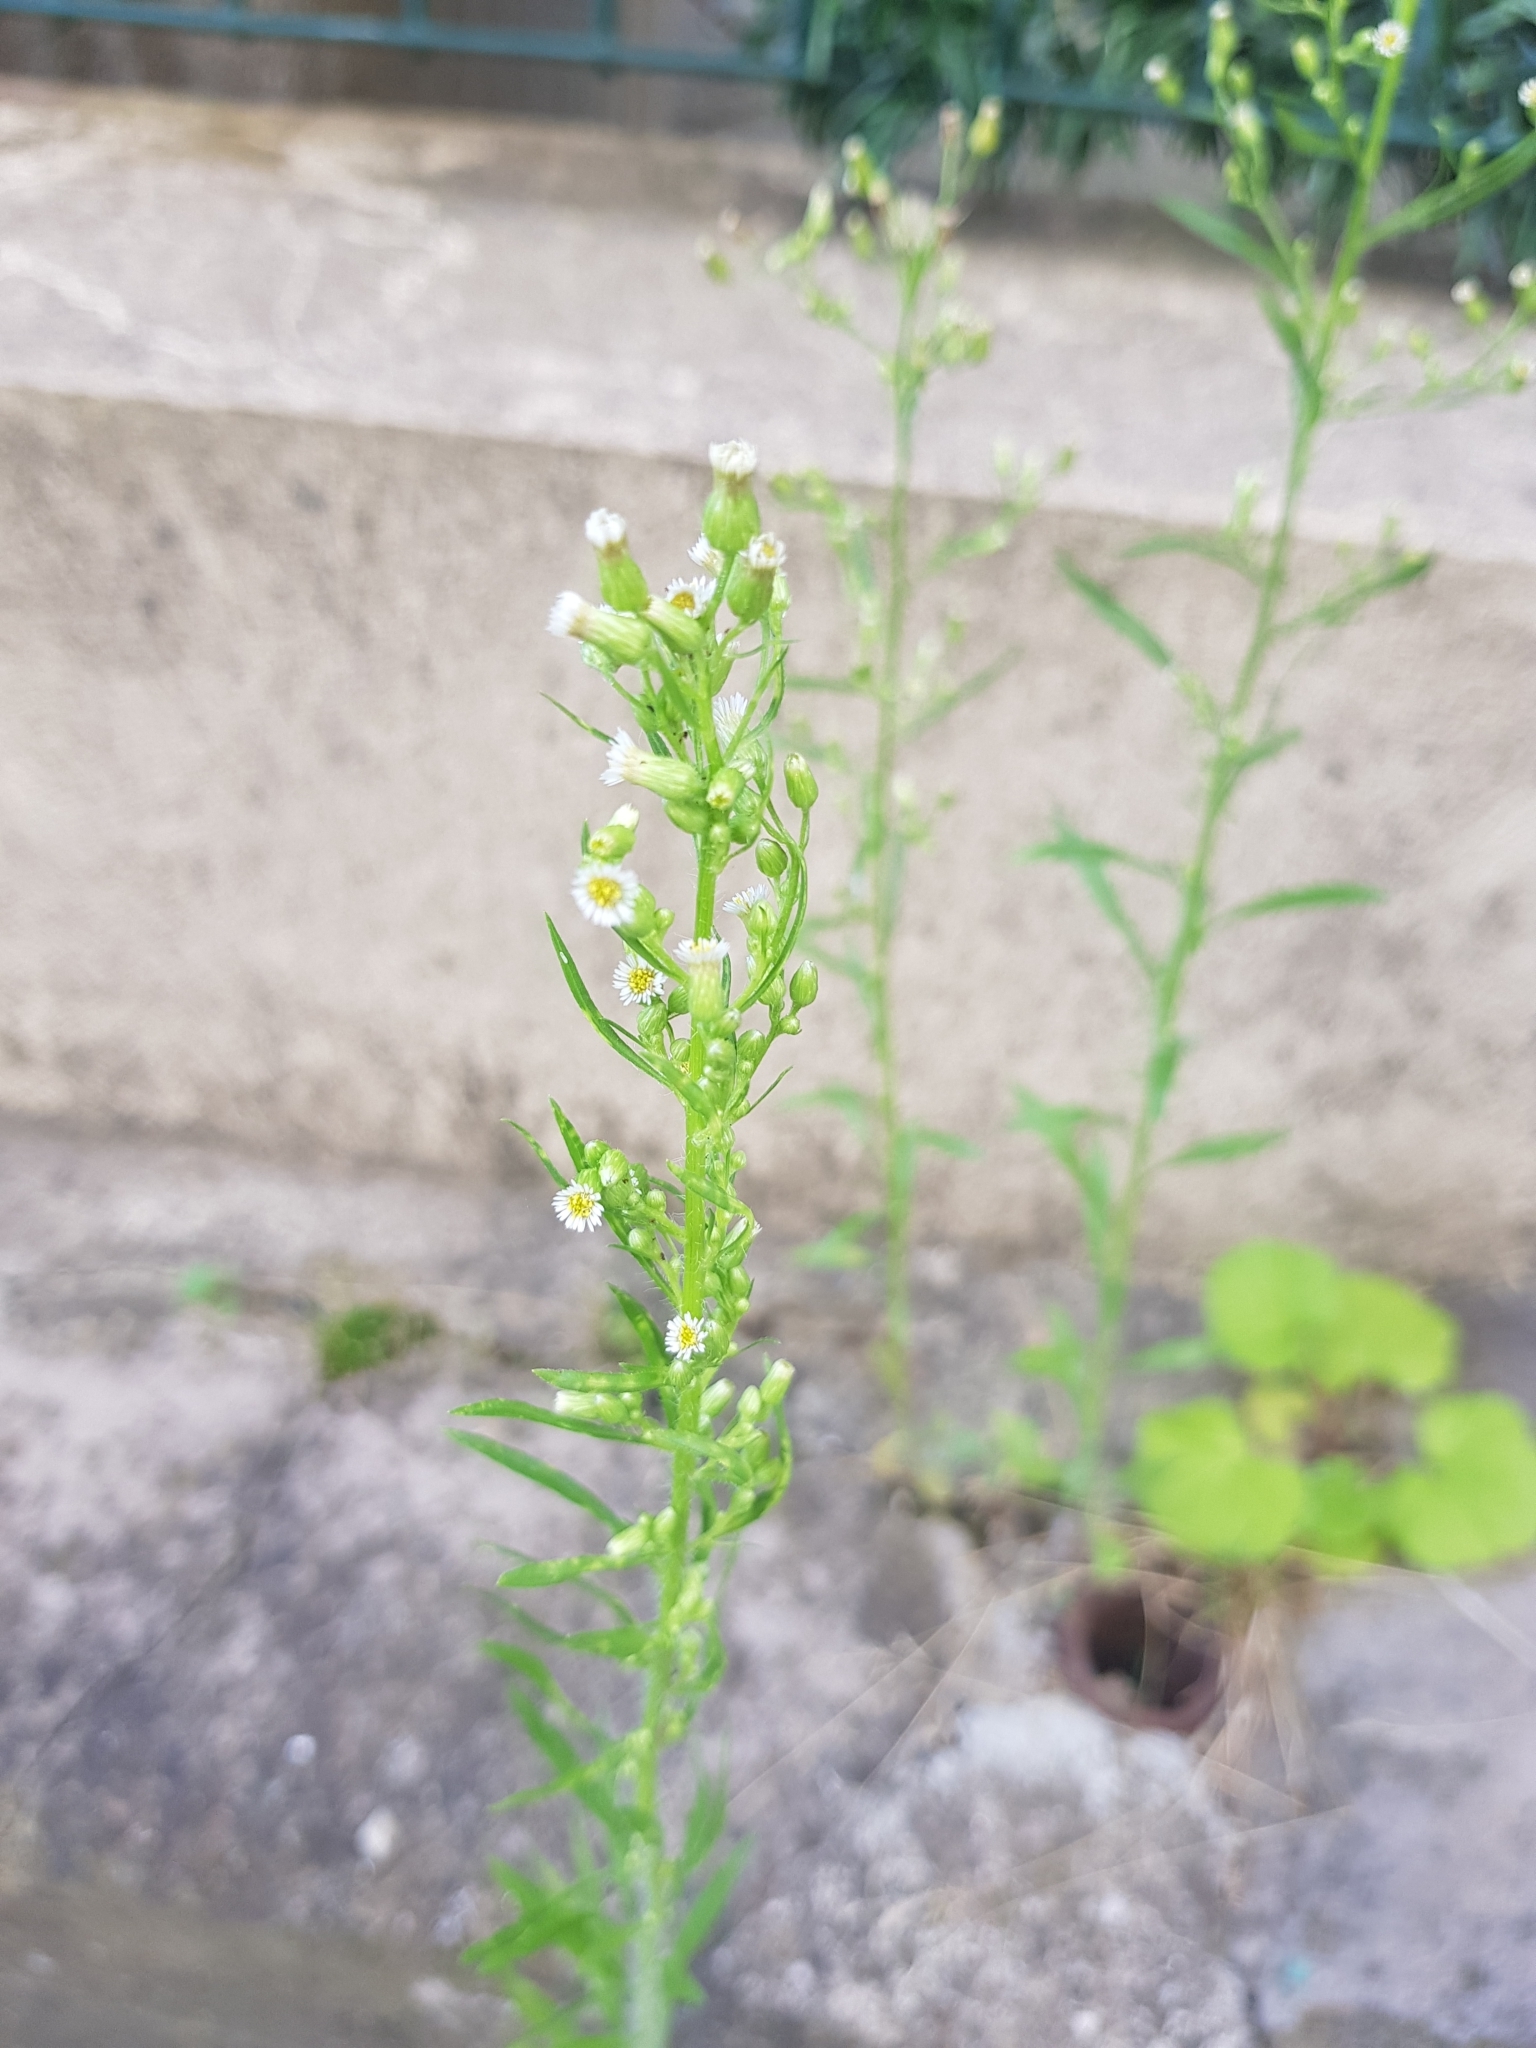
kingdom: Plantae
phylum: Tracheophyta
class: Magnoliopsida
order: Asterales
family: Asteraceae
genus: Erigeron
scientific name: Erigeron canadensis
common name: Canadian fleabane
